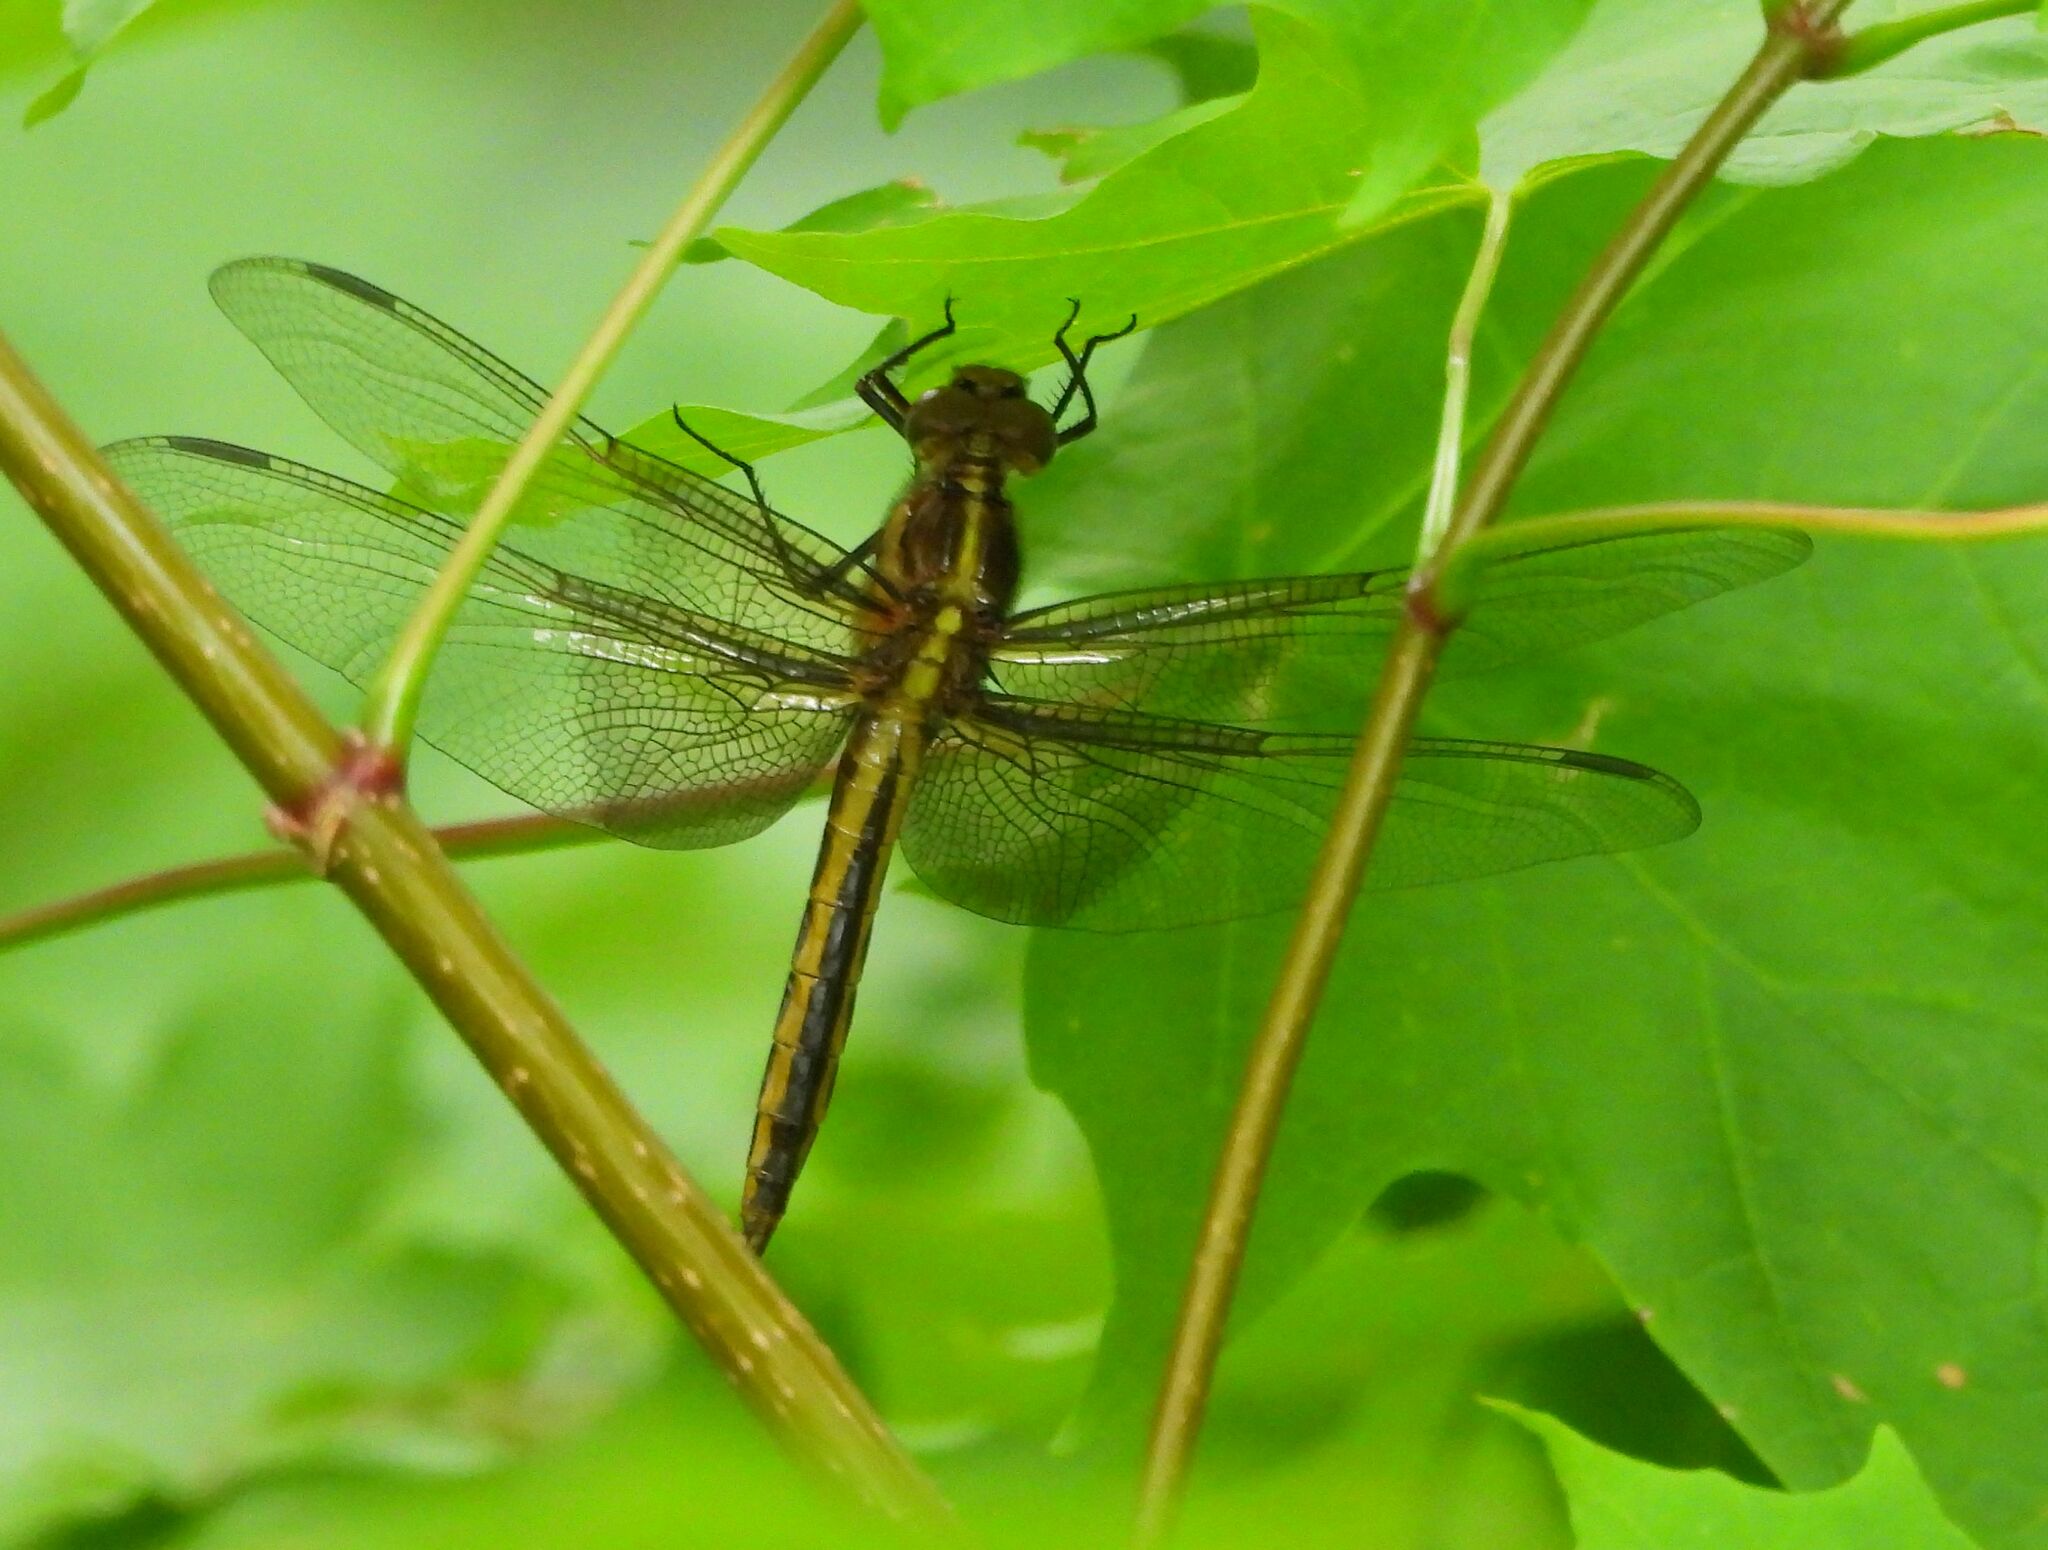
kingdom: Animalia
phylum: Arthropoda
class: Insecta
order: Odonata
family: Libellulidae
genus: Libellula
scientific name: Libellula luctuosa
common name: Widow skimmer
